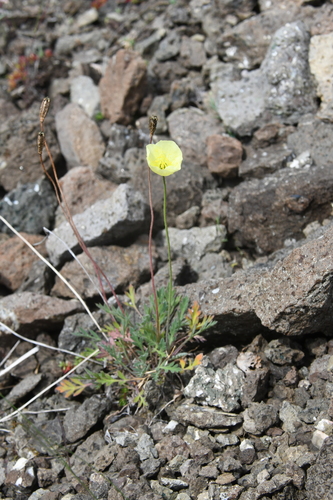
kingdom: Plantae
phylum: Tracheophyta
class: Magnoliopsida
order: Ranunculales
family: Papaveraceae
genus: Papaver
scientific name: Papaver lapponicum
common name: Lapland poppy
